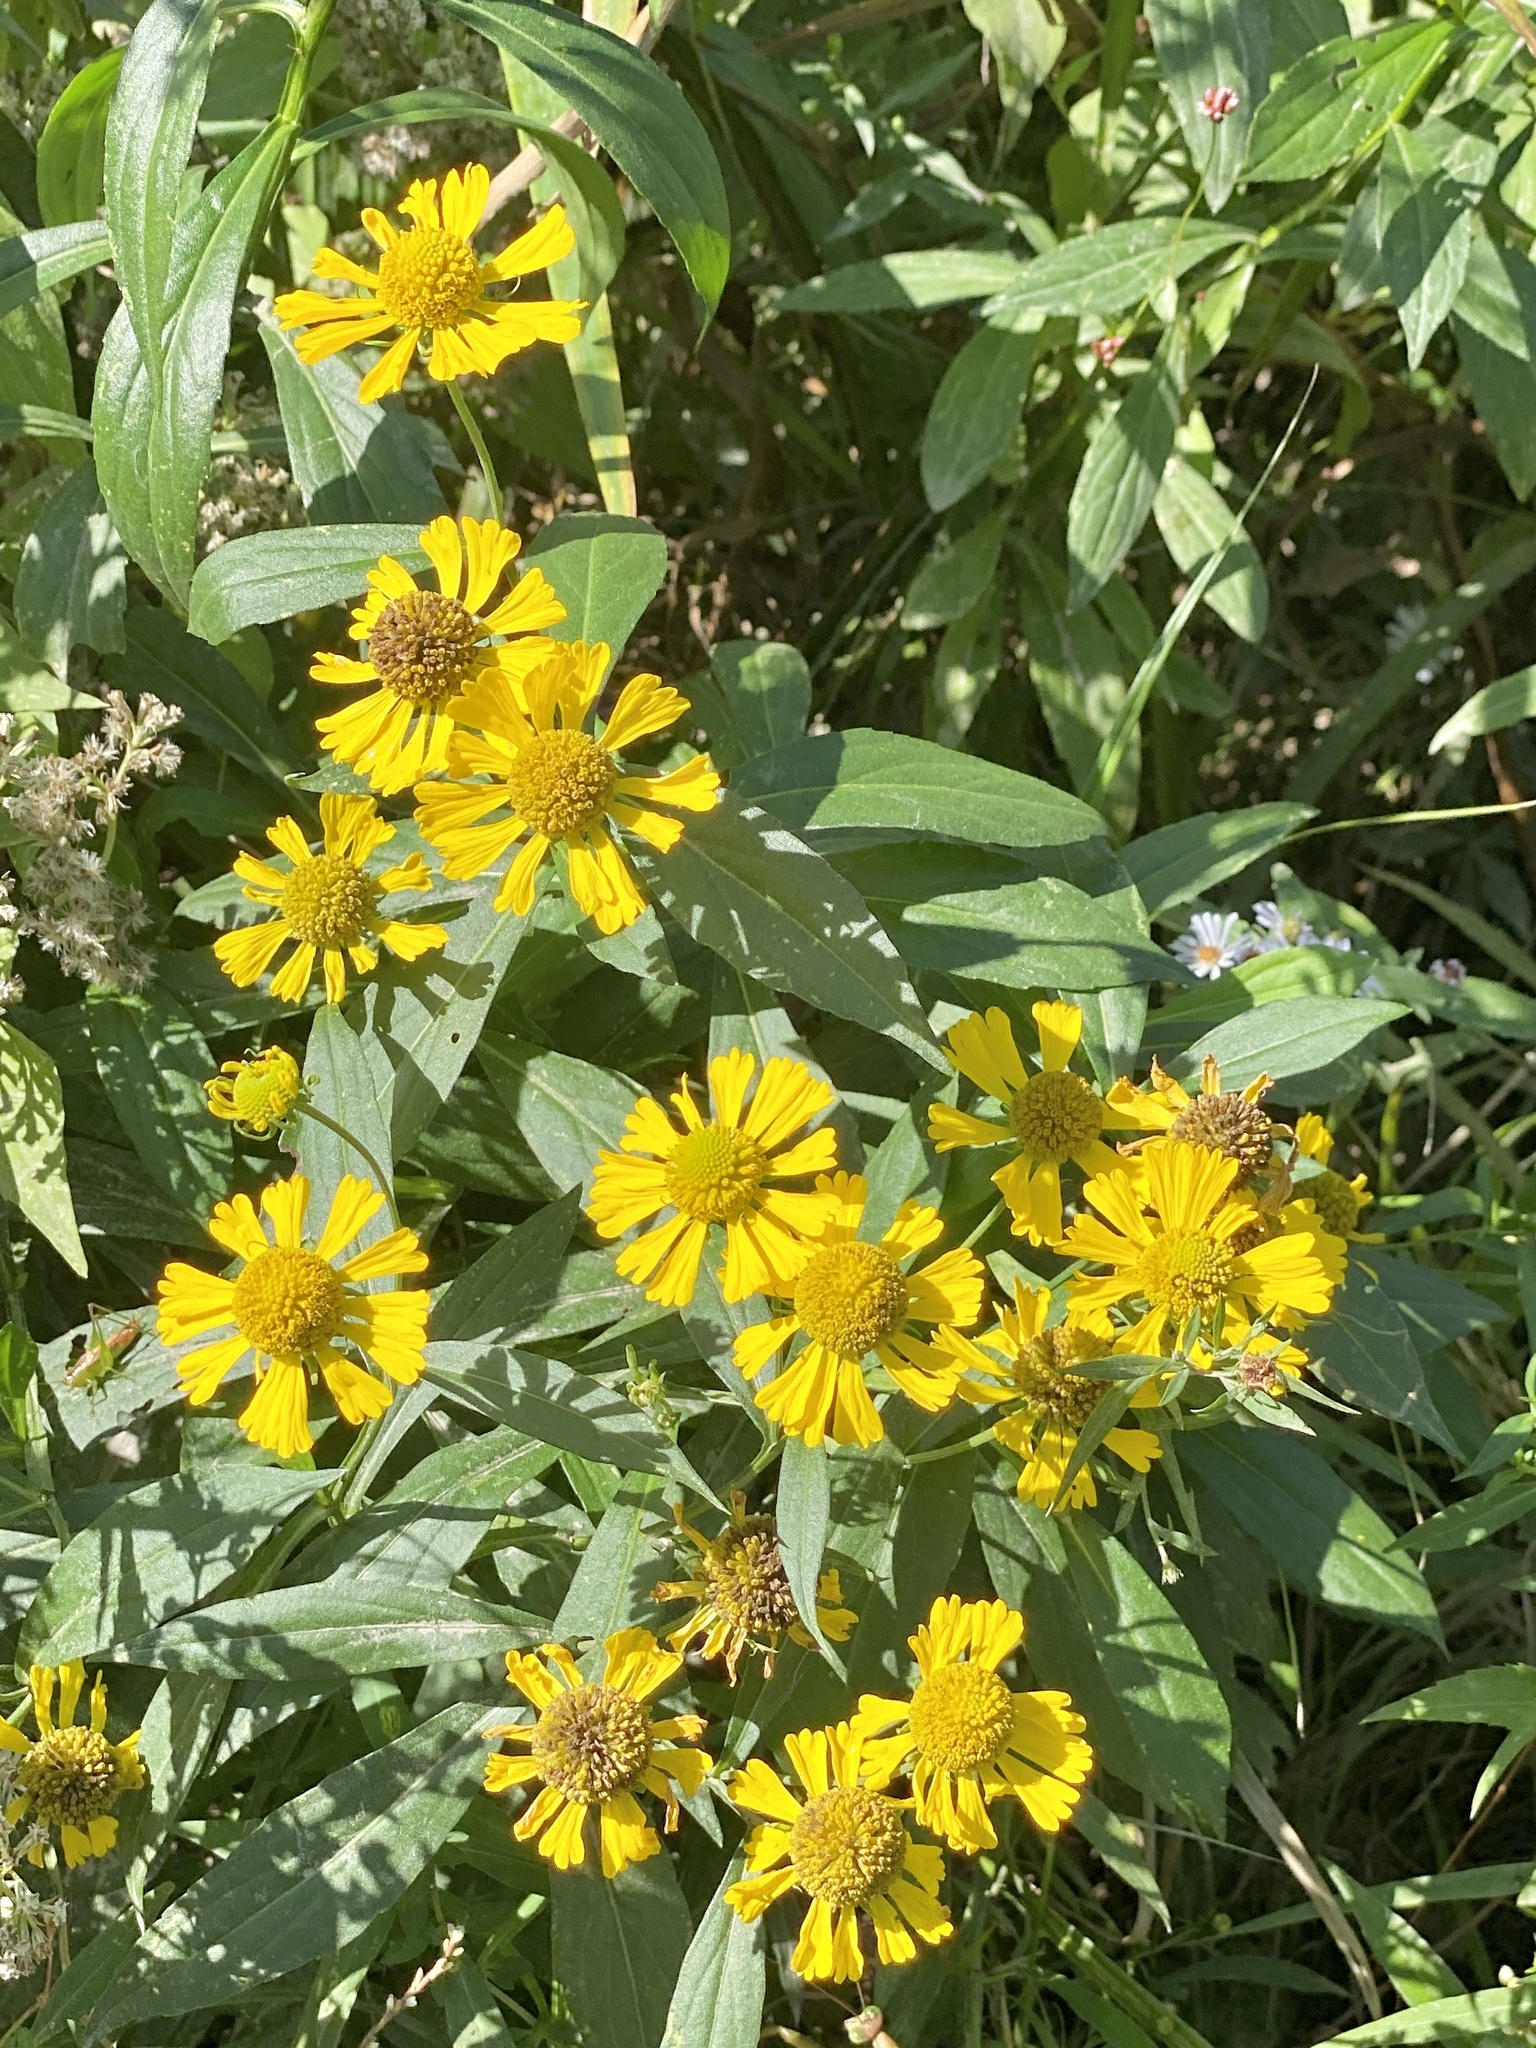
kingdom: Plantae
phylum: Tracheophyta
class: Magnoliopsida
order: Asterales
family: Asteraceae
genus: Helenium
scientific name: Helenium autumnale
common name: Sneezeweed
